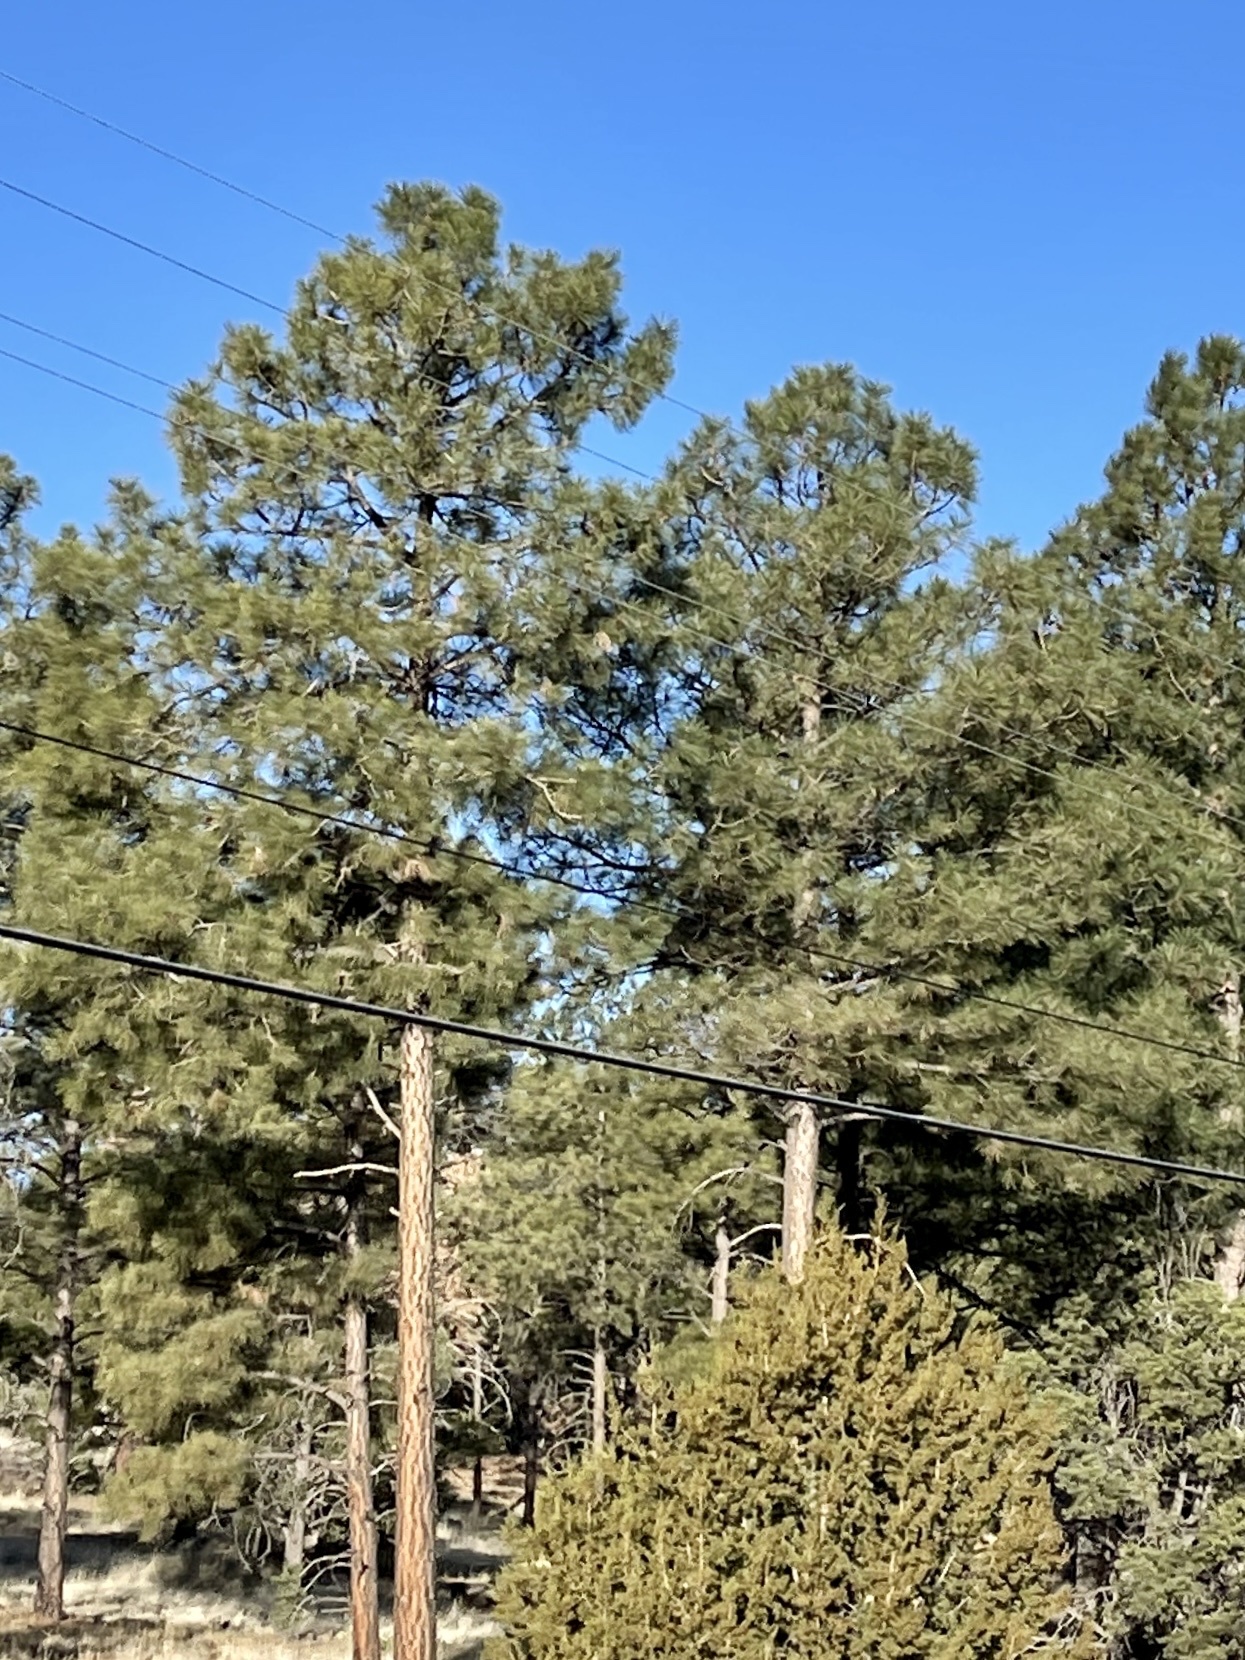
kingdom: Plantae
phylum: Tracheophyta
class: Pinopsida
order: Pinales
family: Pinaceae
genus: Pinus
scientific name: Pinus ponderosa
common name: Western yellow-pine
